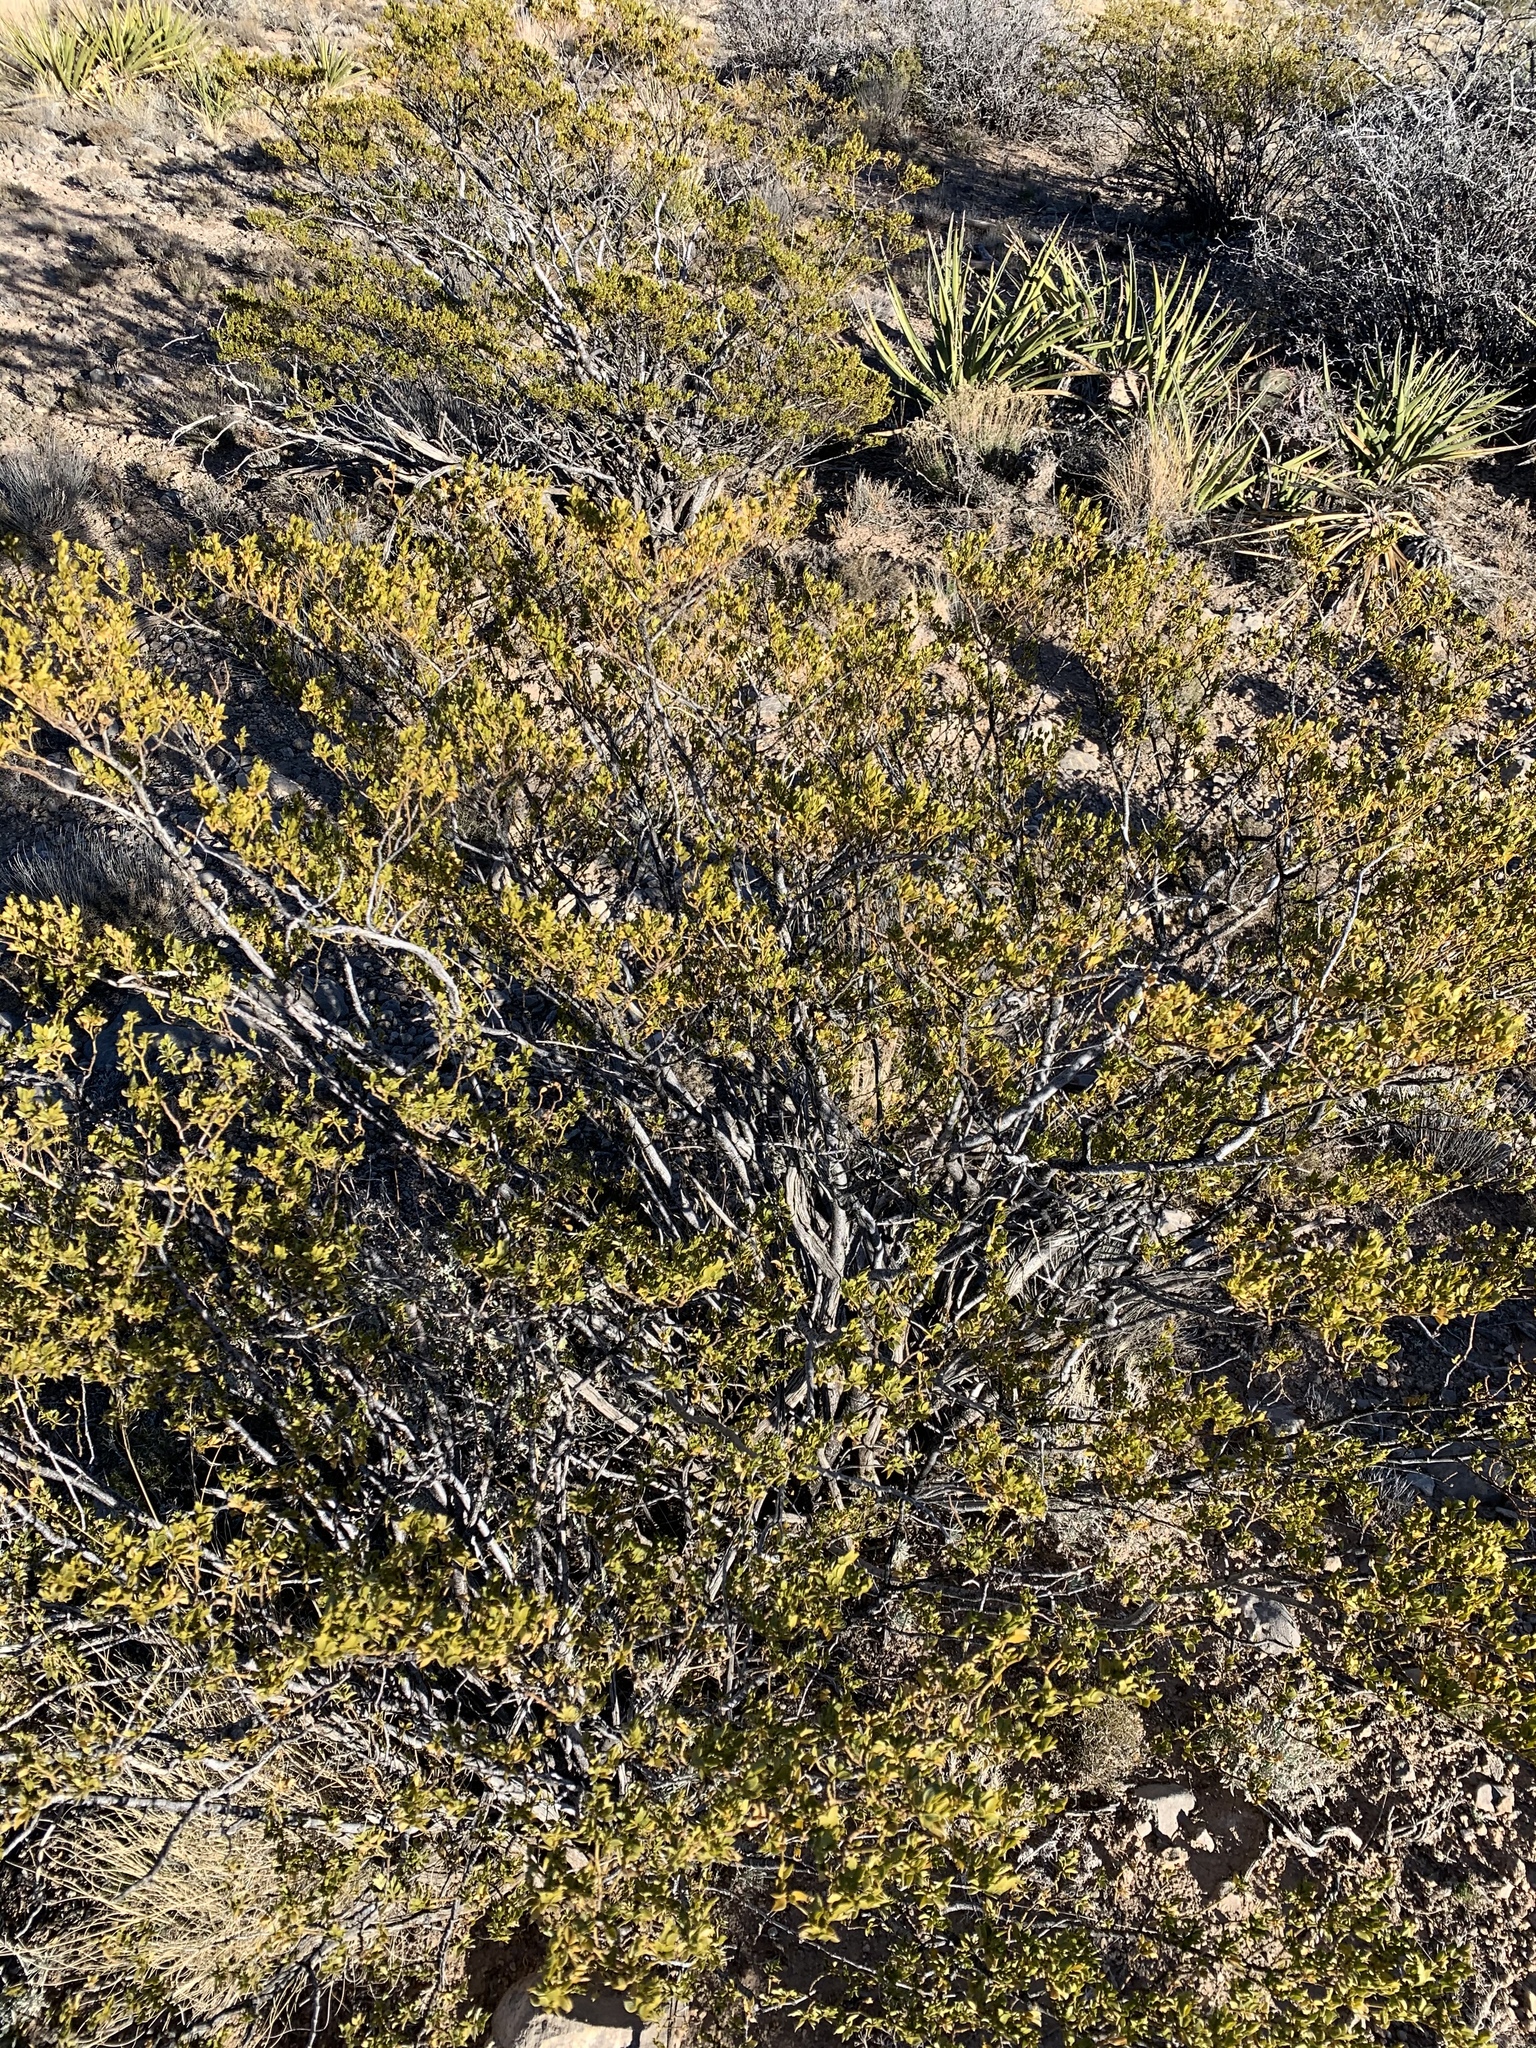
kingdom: Plantae
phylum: Tracheophyta
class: Magnoliopsida
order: Zygophyllales
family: Zygophyllaceae
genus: Larrea
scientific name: Larrea tridentata
